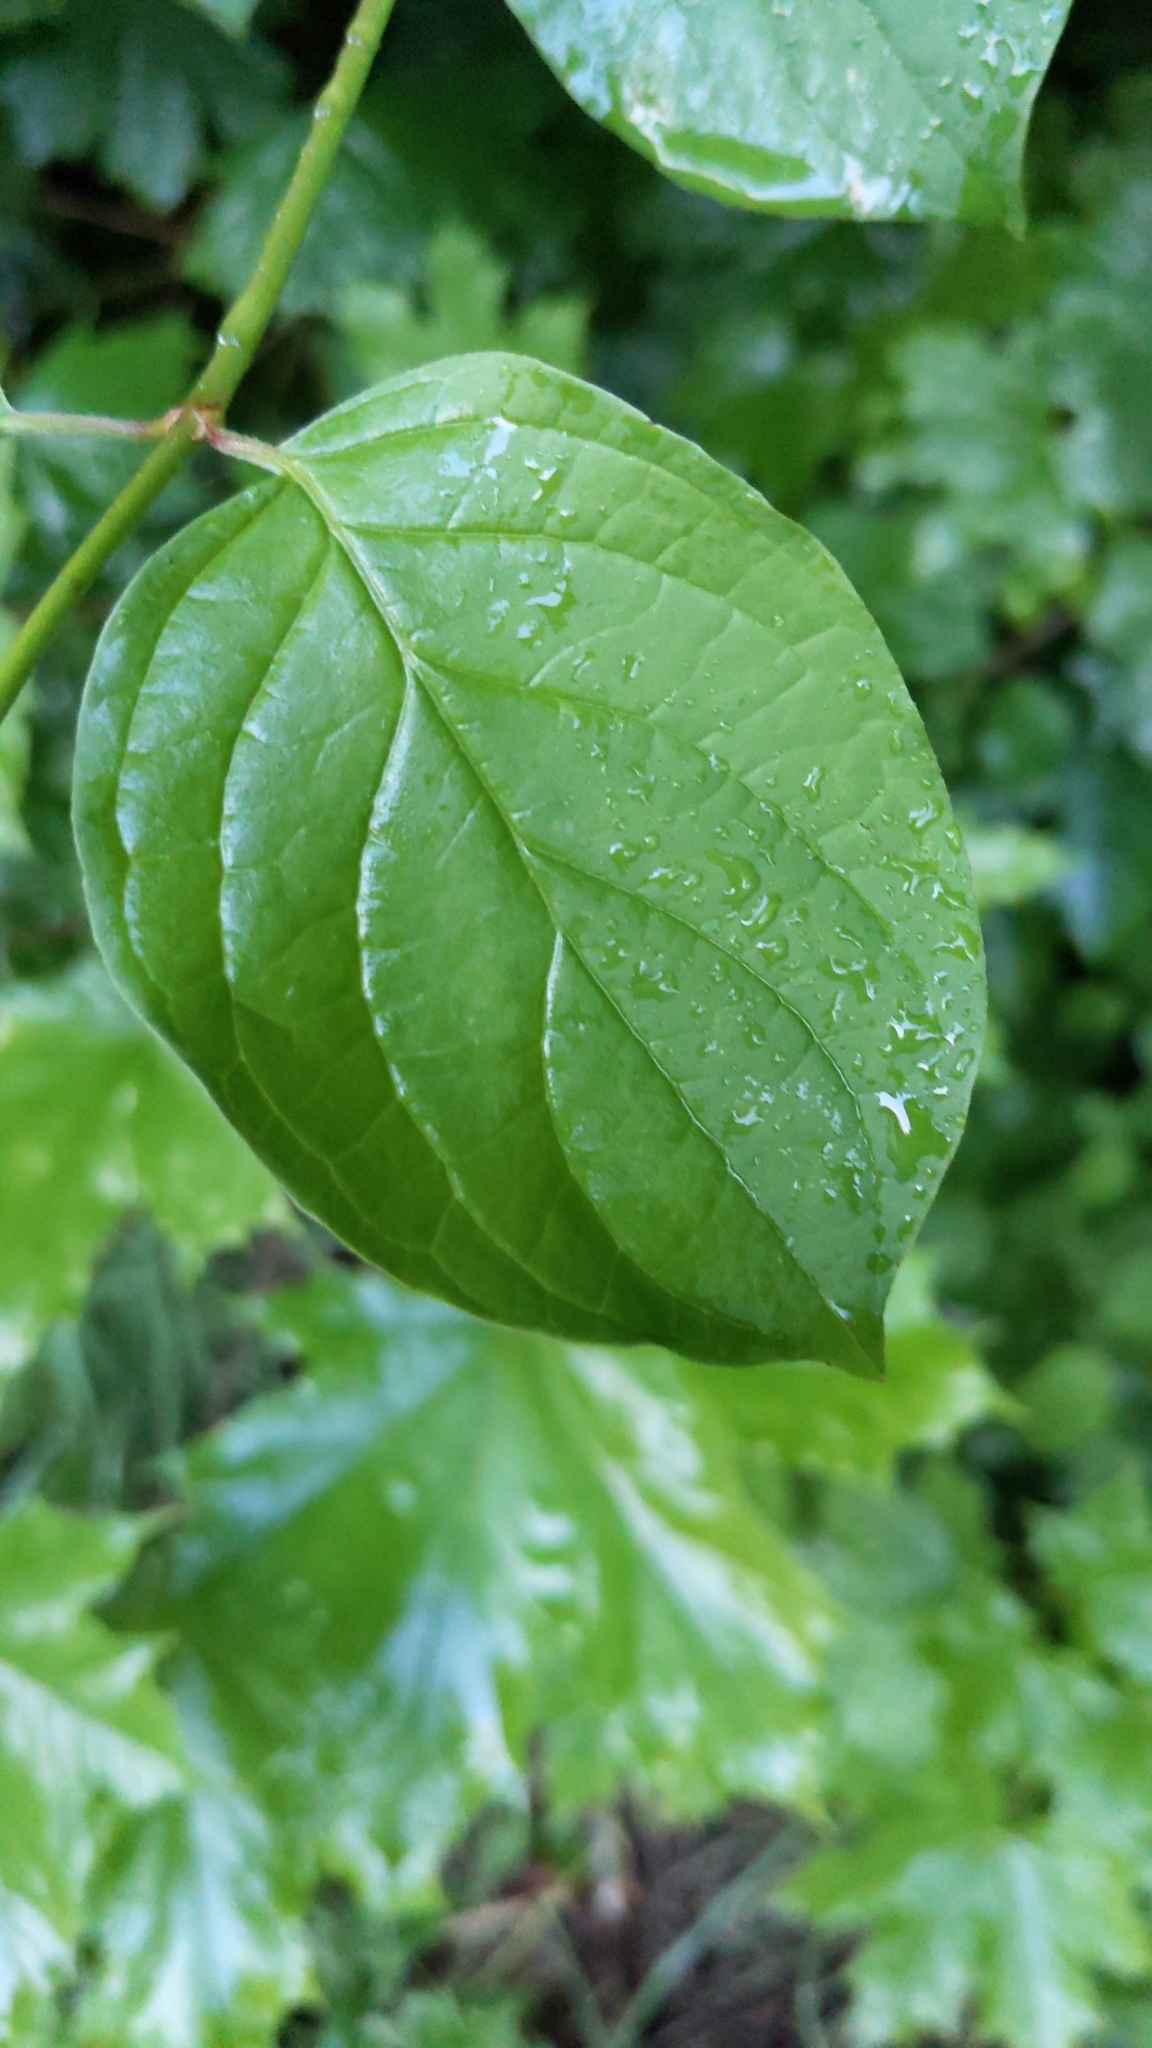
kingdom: Plantae
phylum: Tracheophyta
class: Magnoliopsida
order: Cornales
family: Cornaceae
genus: Cornus
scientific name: Cornus sanguinea
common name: Dogwood
